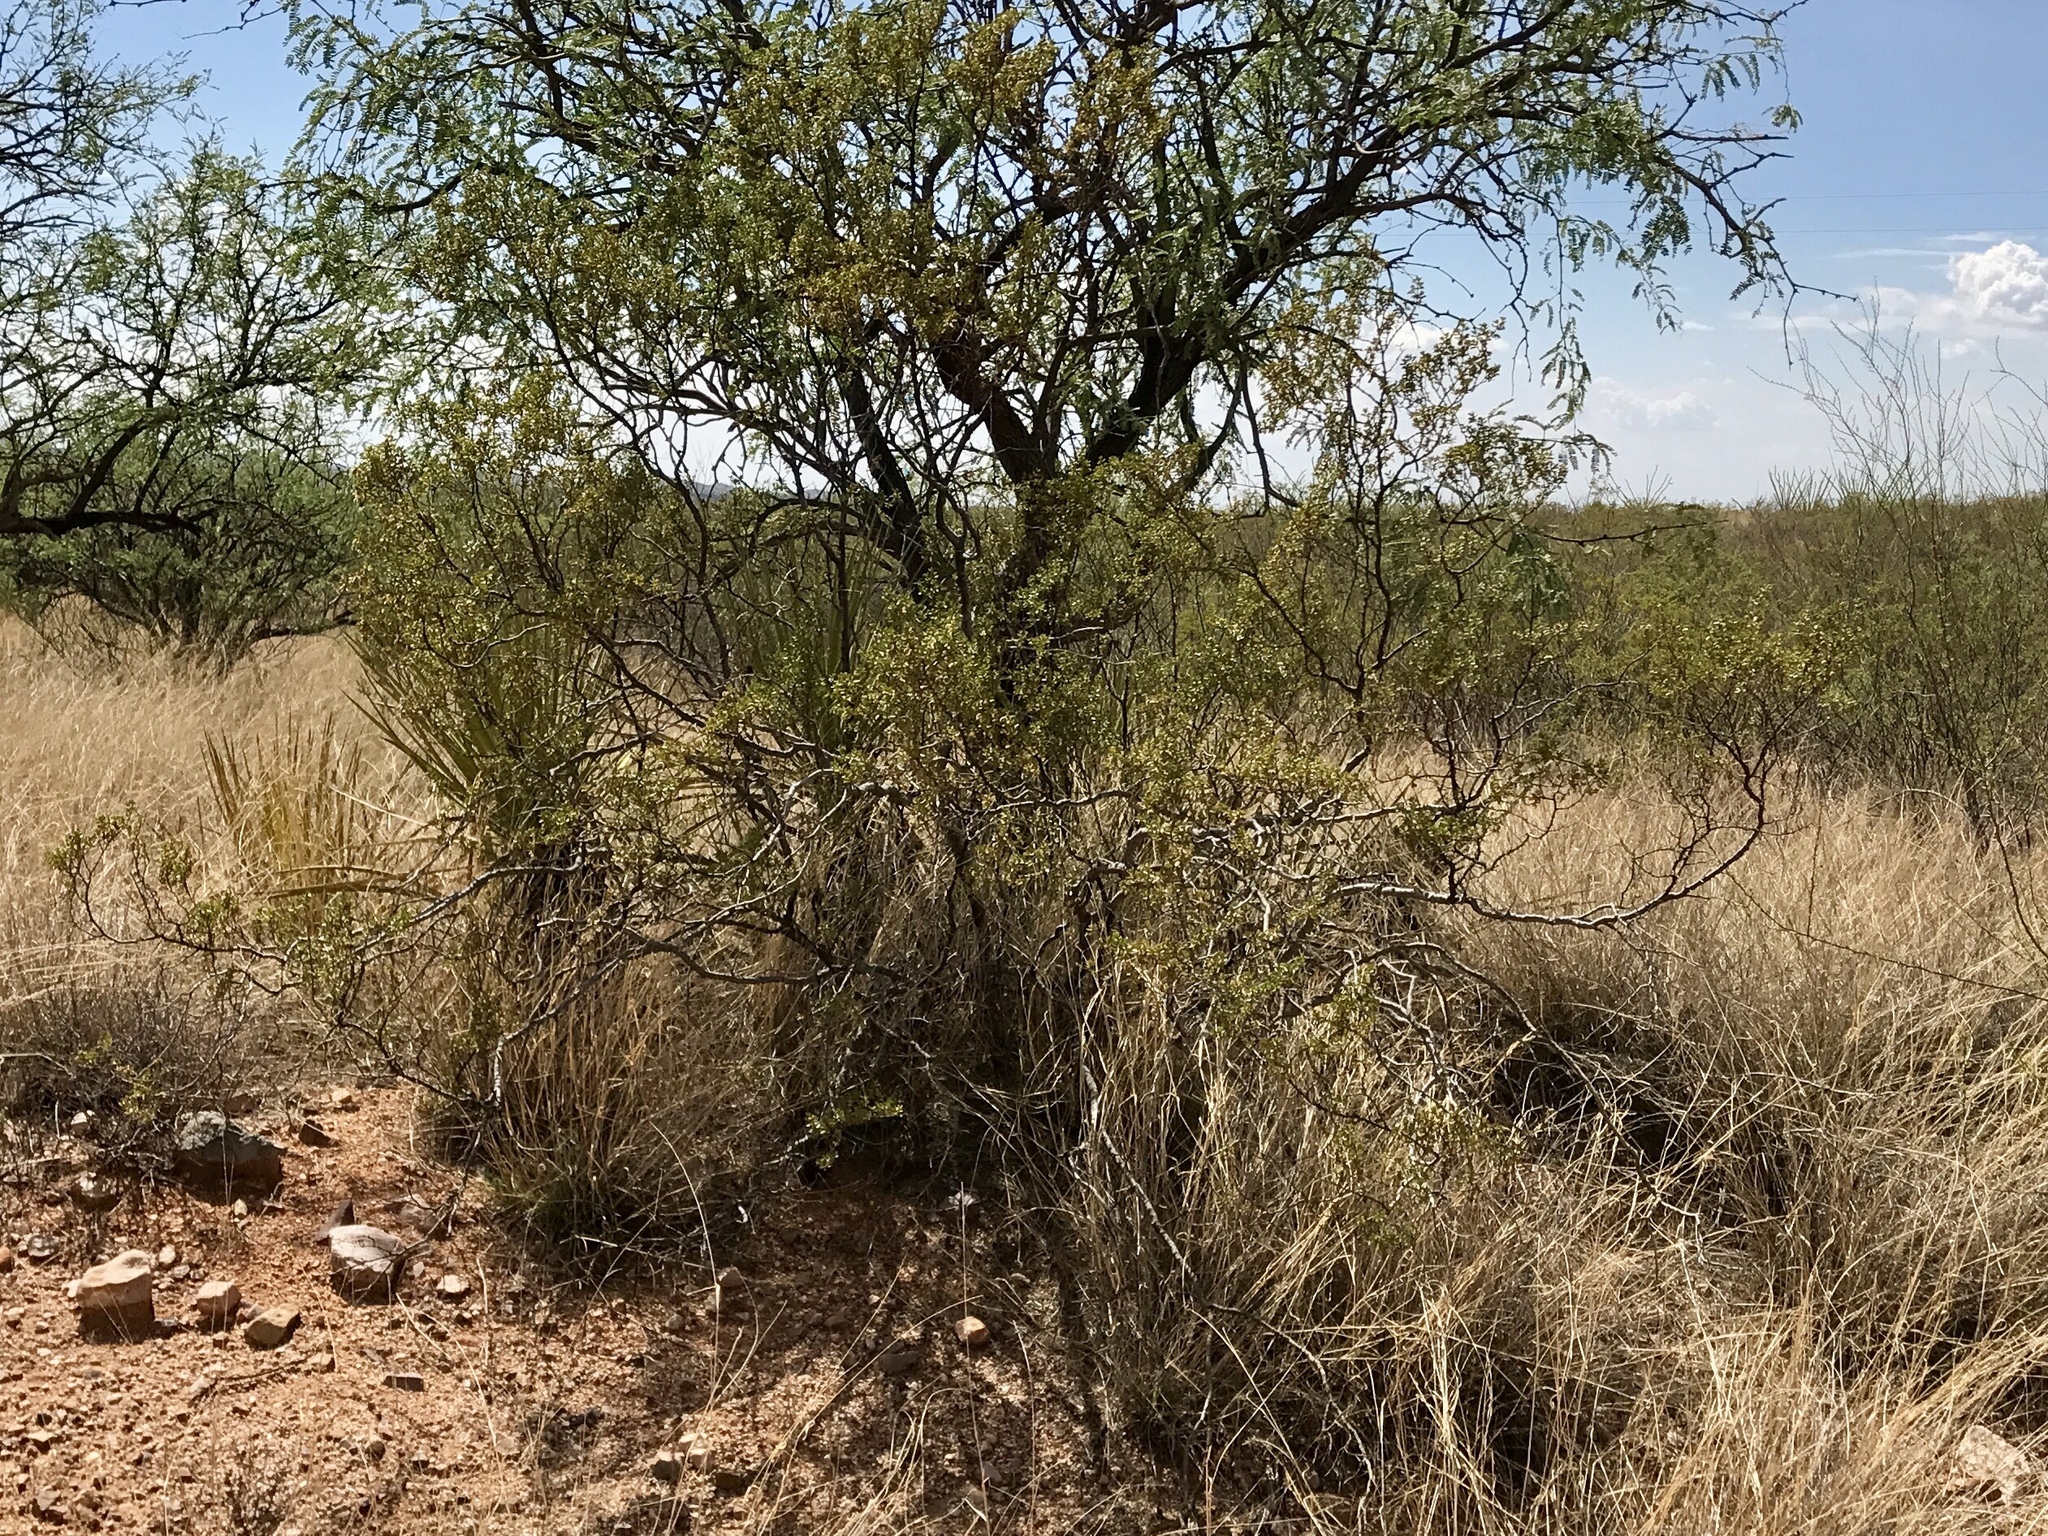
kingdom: Plantae
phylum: Tracheophyta
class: Magnoliopsida
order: Zygophyllales
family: Zygophyllaceae
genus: Larrea
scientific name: Larrea tridentata
